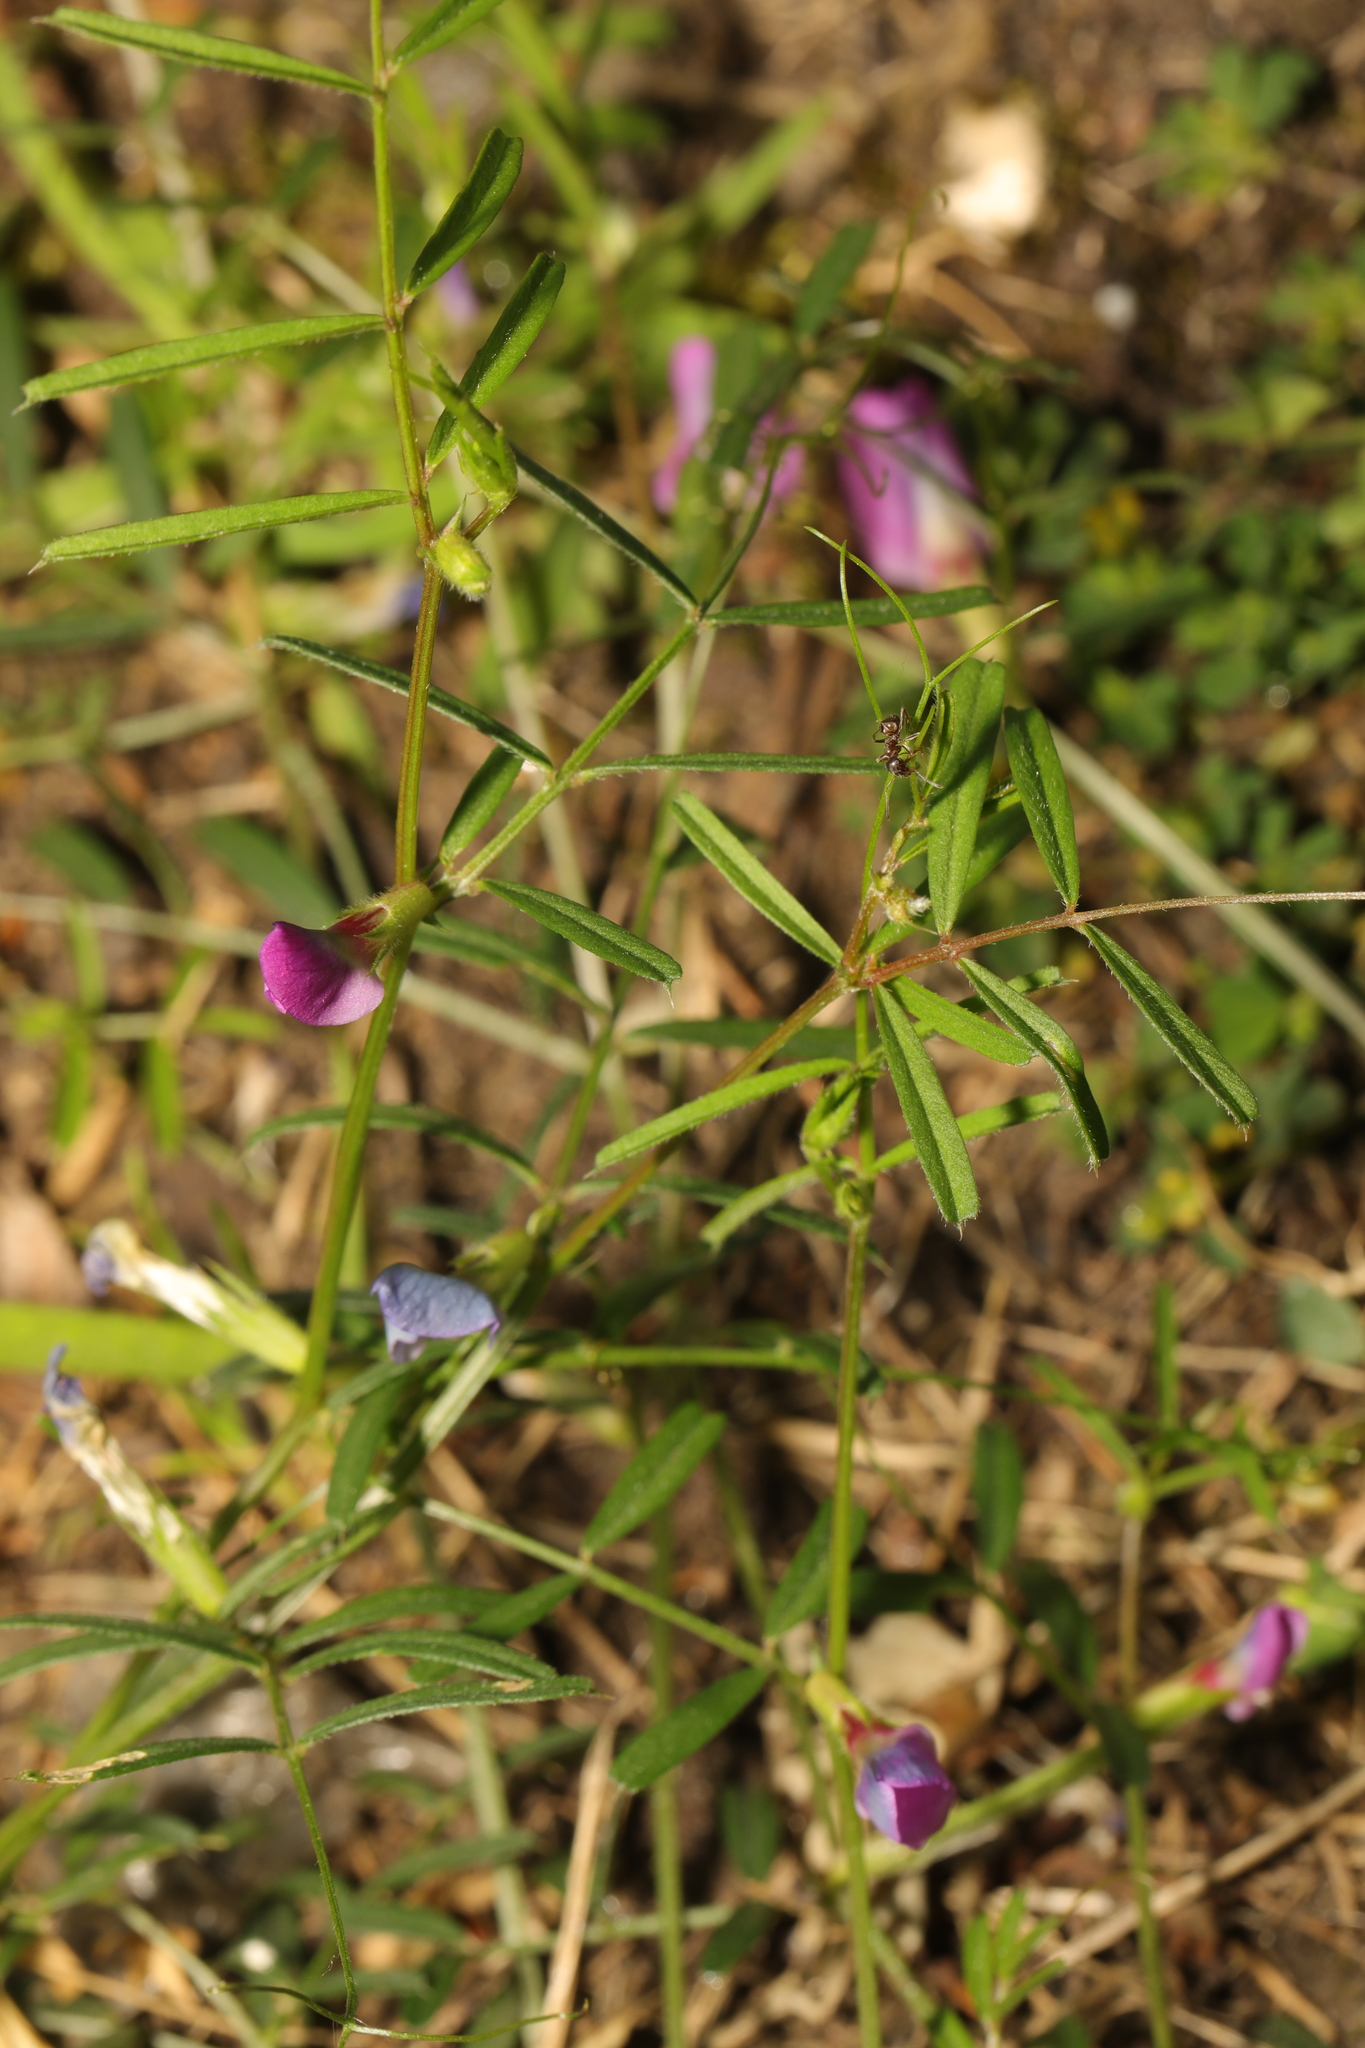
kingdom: Plantae
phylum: Tracheophyta
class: Magnoliopsida
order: Fabales
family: Fabaceae
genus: Vicia
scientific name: Vicia sativa
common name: Garden vetch
